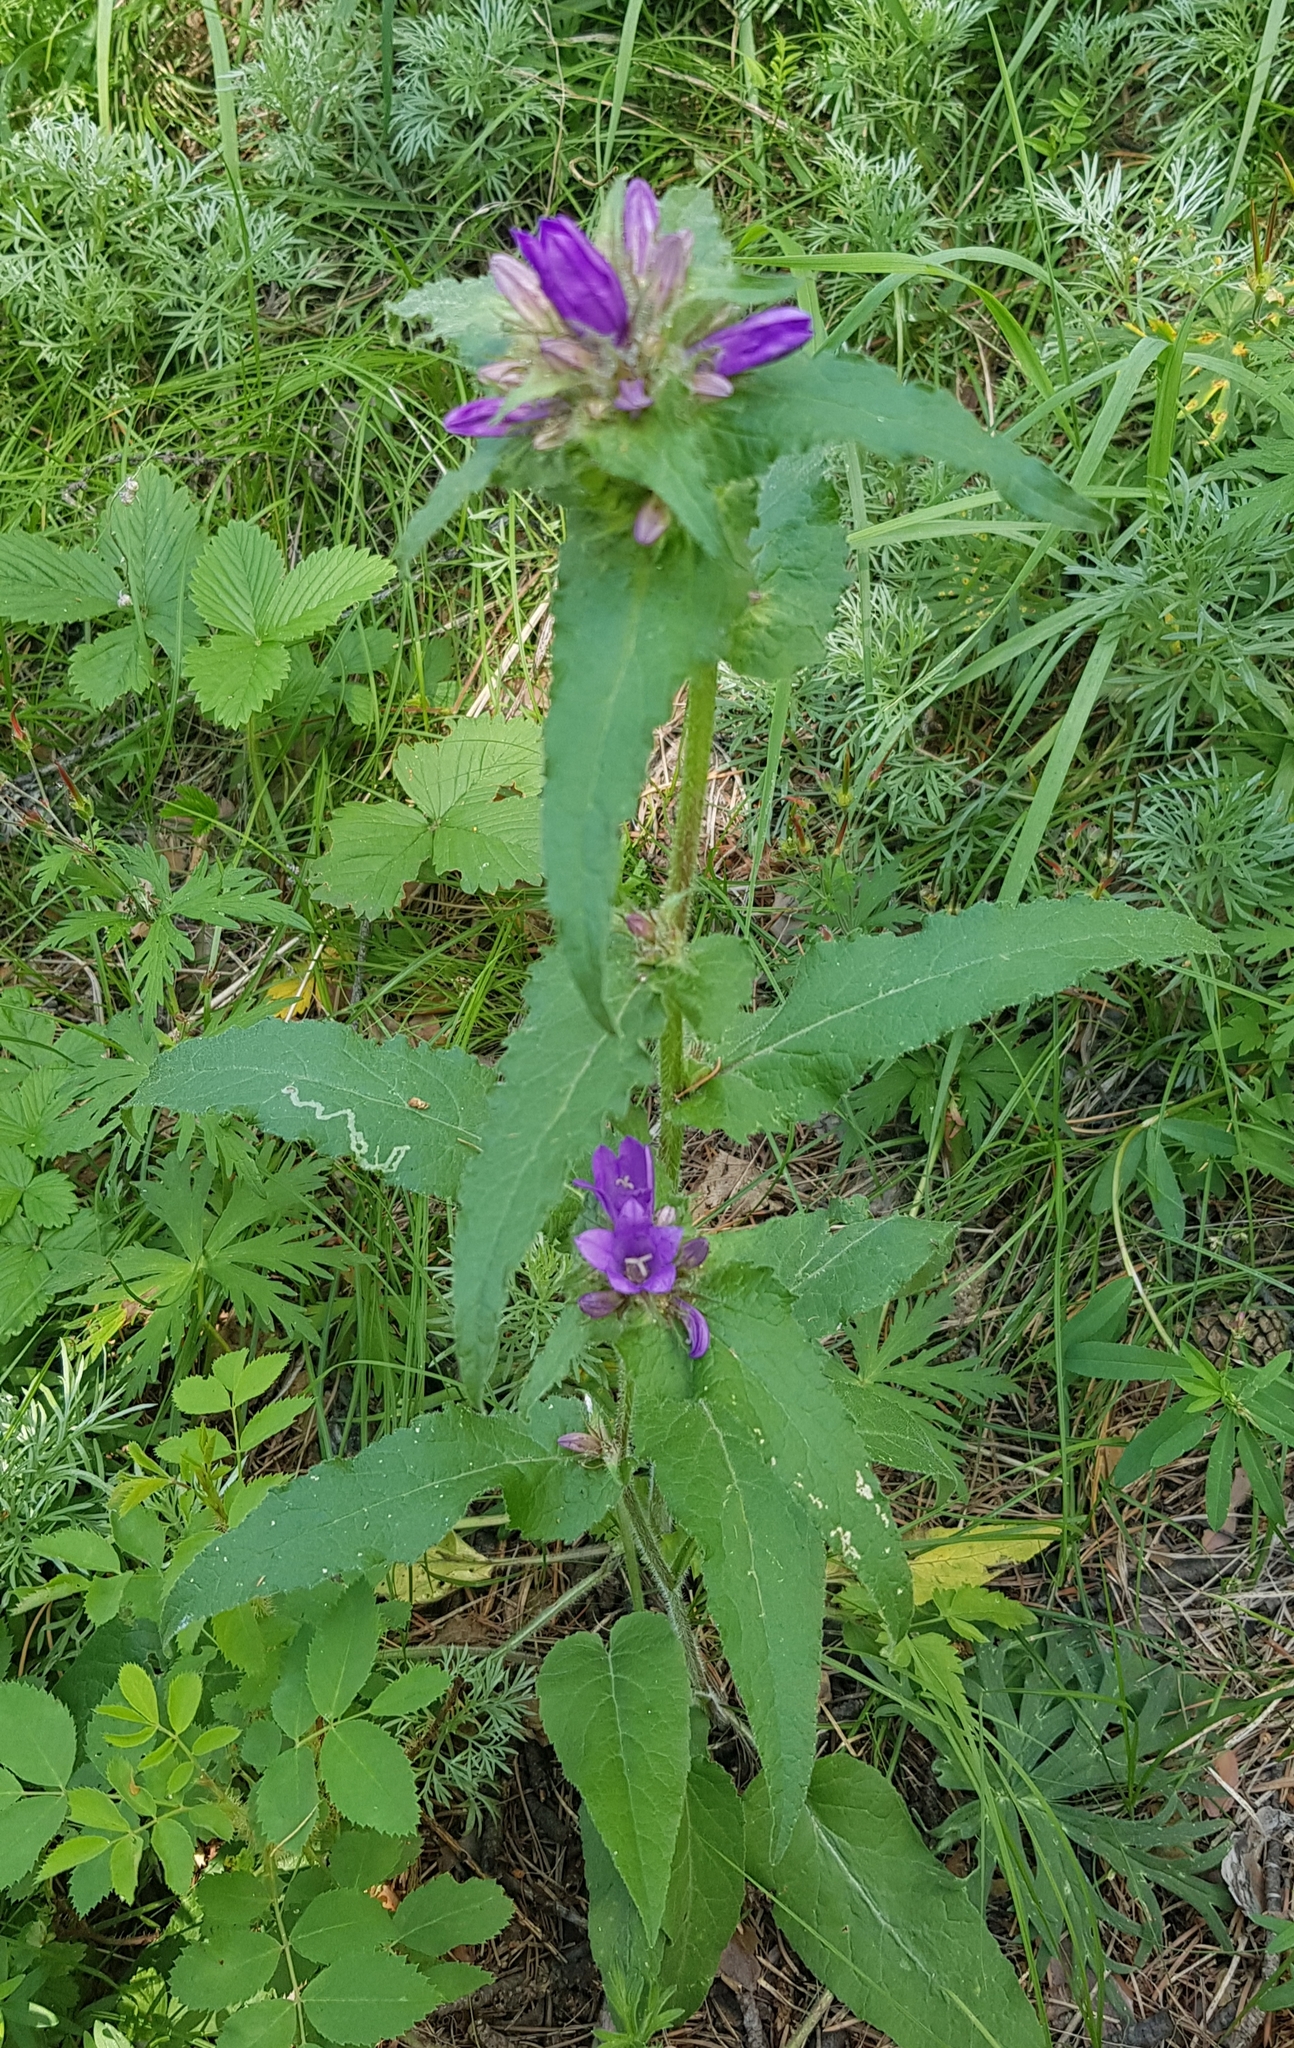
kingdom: Plantae
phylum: Tracheophyta
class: Magnoliopsida
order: Asterales
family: Campanulaceae
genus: Campanula
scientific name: Campanula glomerata
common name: Clustered bellflower
